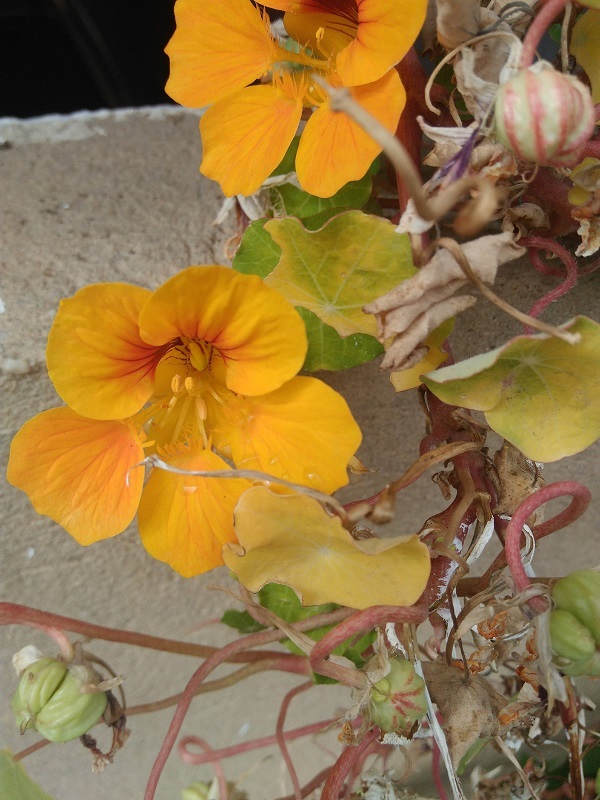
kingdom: Plantae
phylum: Tracheophyta
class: Magnoliopsida
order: Brassicales
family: Tropaeolaceae
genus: Tropaeolum
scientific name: Tropaeolum majus
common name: Nasturtium
